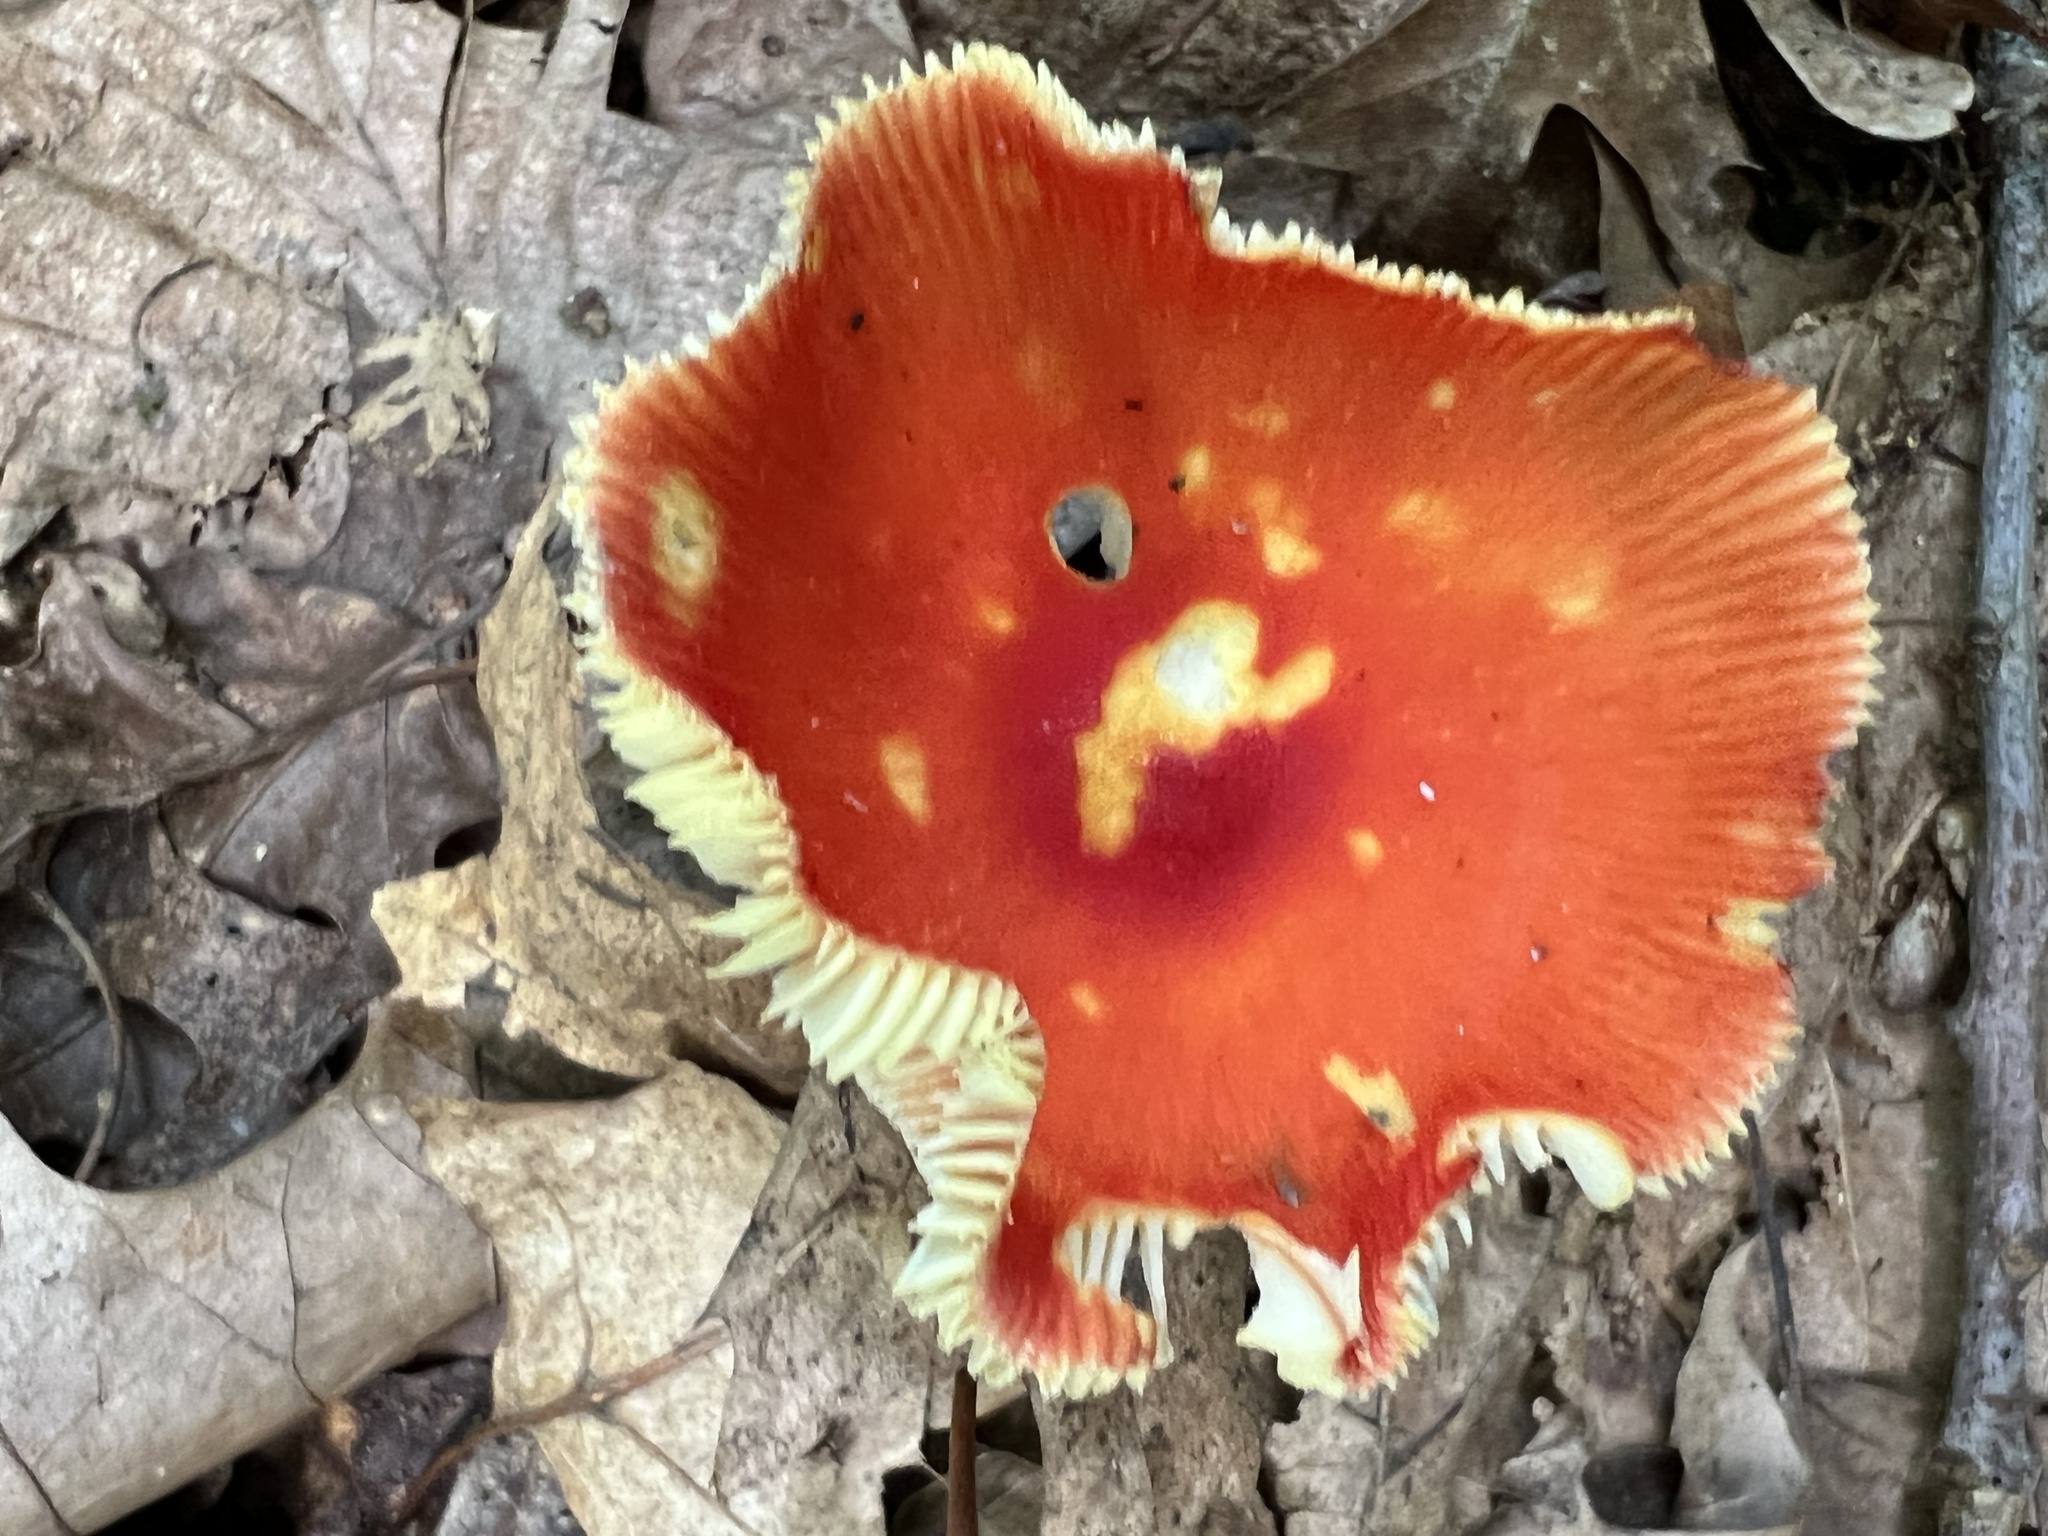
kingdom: Fungi
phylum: Basidiomycota
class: Agaricomycetes
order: Agaricales
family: Amanitaceae
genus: Amanita
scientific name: Amanita parcivolvata
